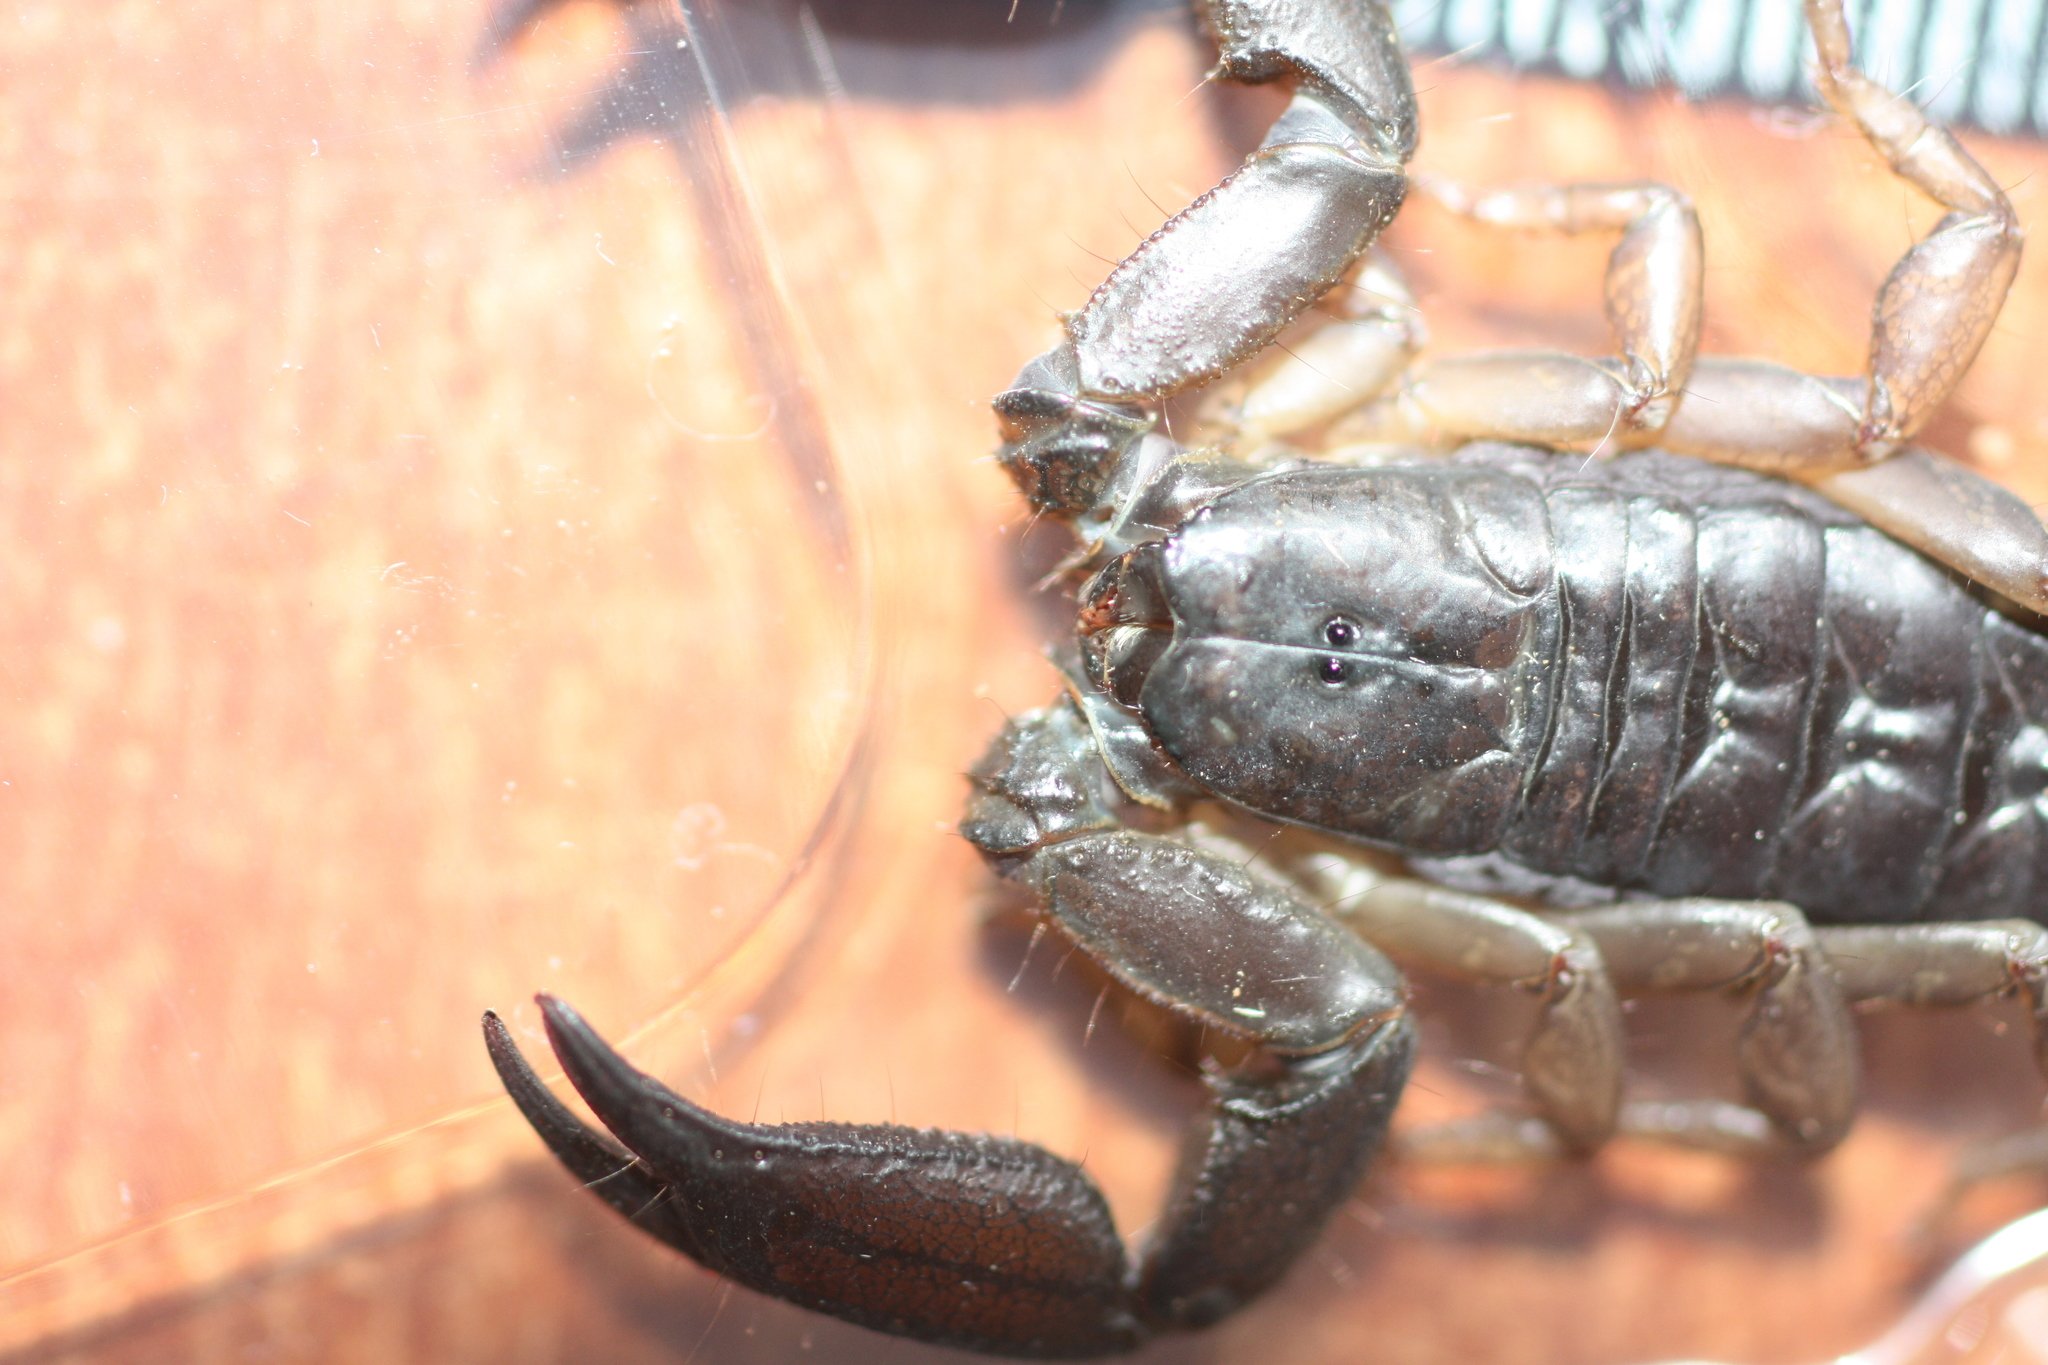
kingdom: Animalia
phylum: Arthropoda
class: Arachnida
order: Scorpiones
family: Hormuridae
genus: Iomachus
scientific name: Iomachus politus
